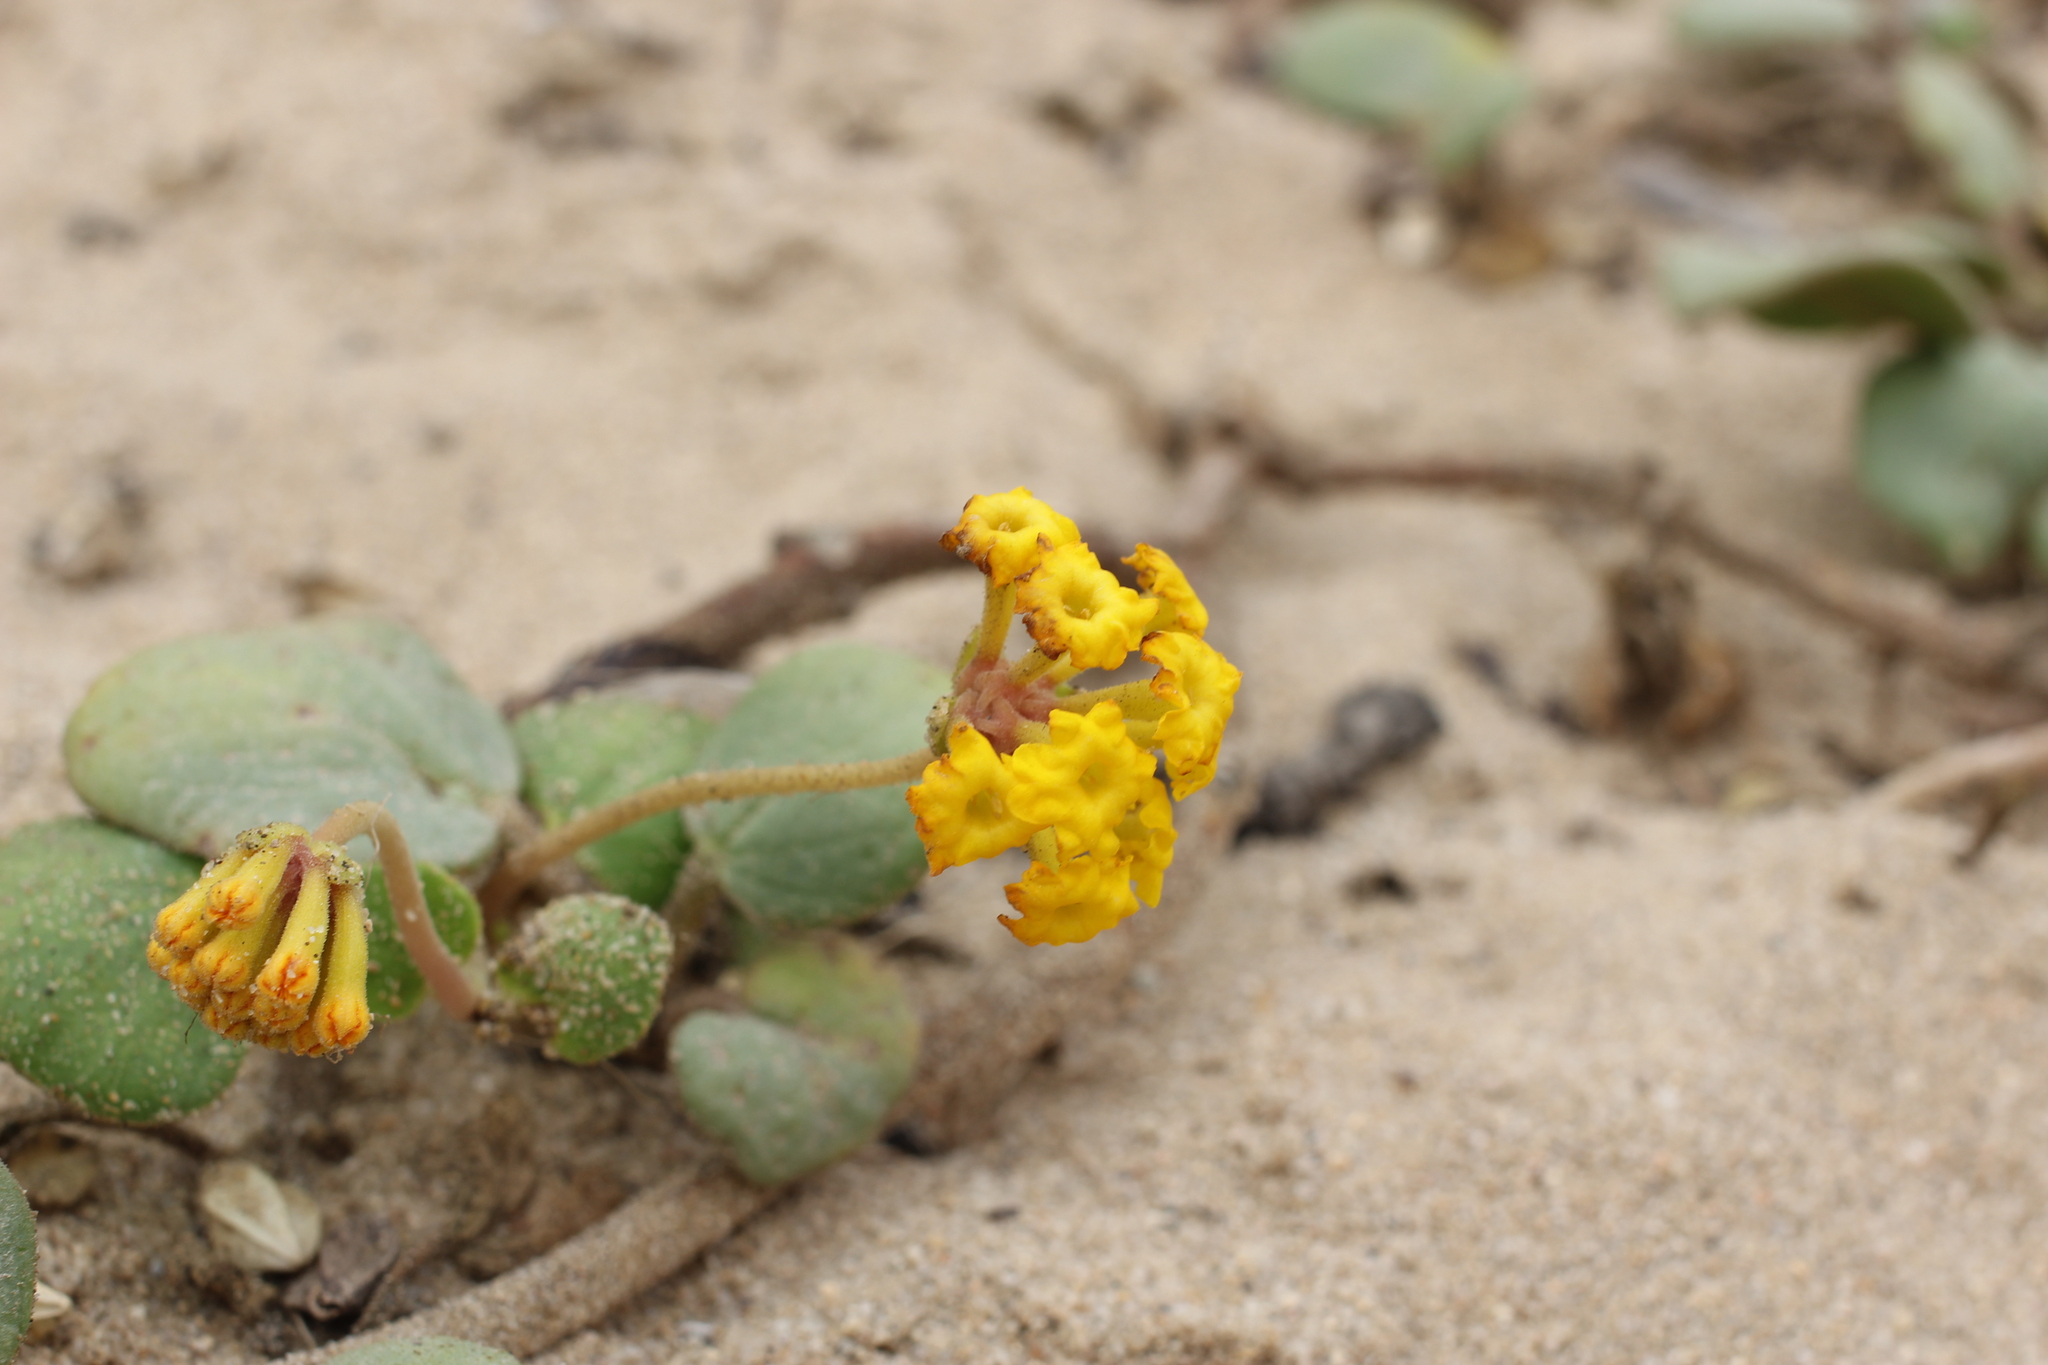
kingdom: Plantae
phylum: Tracheophyta
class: Magnoliopsida
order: Caryophyllales
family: Nyctaginaceae
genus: Abronia
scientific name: Abronia latifolia
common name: Yellow sand-verbena
